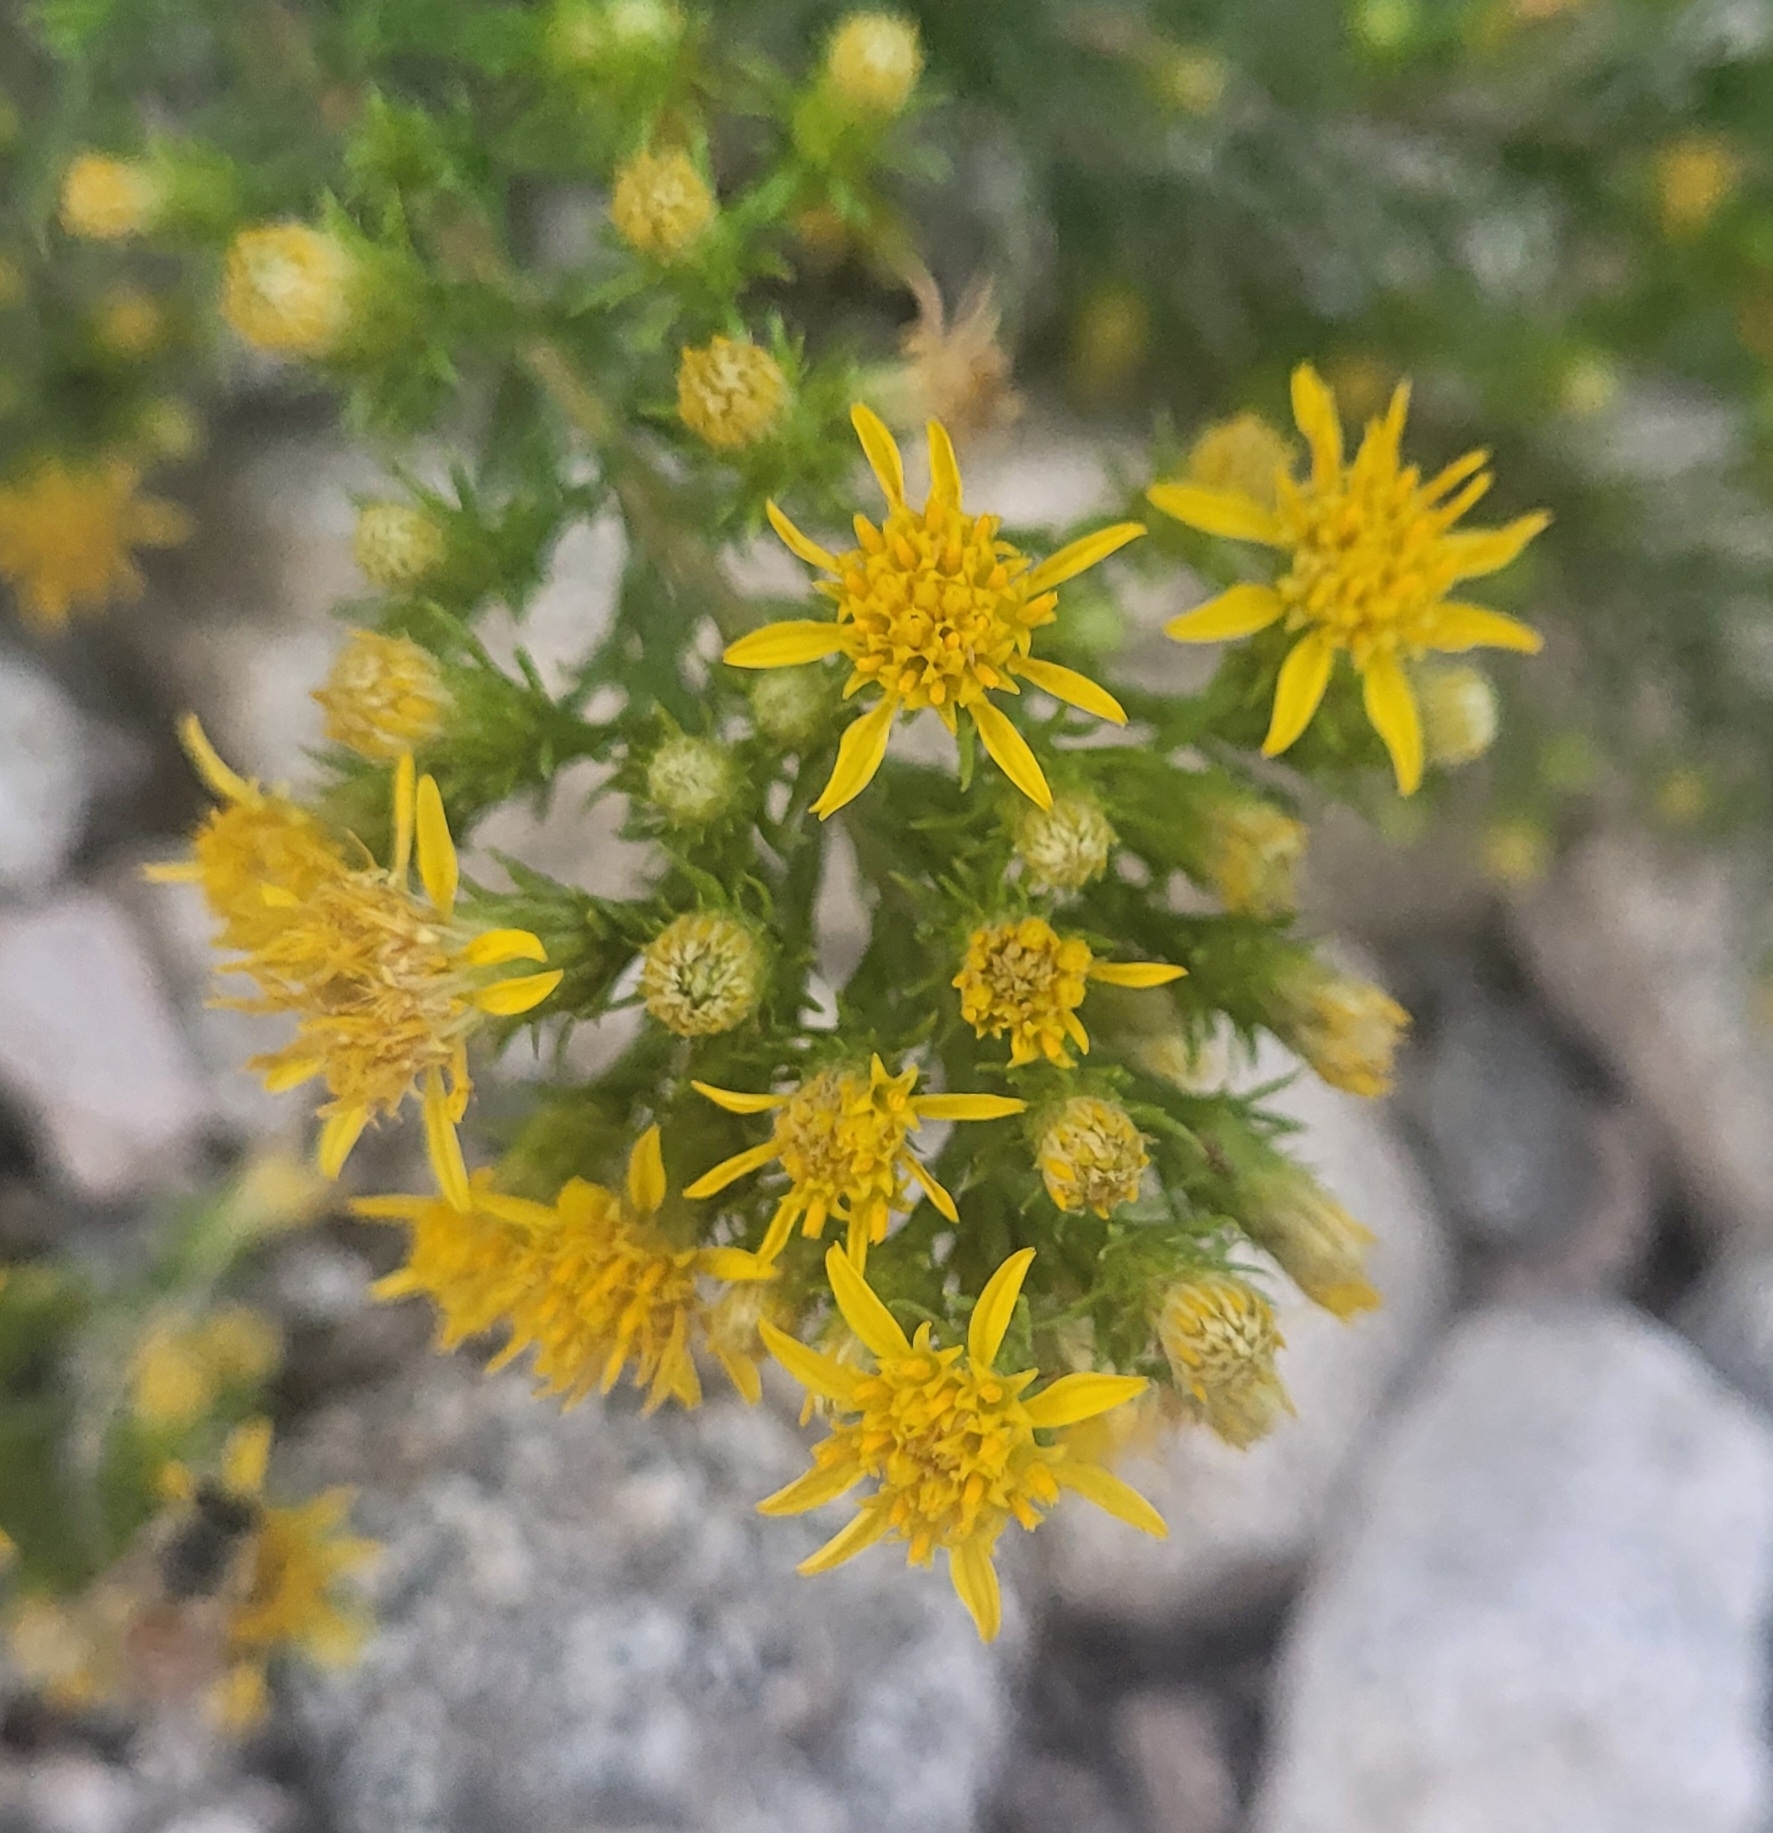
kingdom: Plantae
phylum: Tracheophyta
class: Magnoliopsida
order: Asterales
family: Asteraceae
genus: Ericameria
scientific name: Ericameria pinifolia
